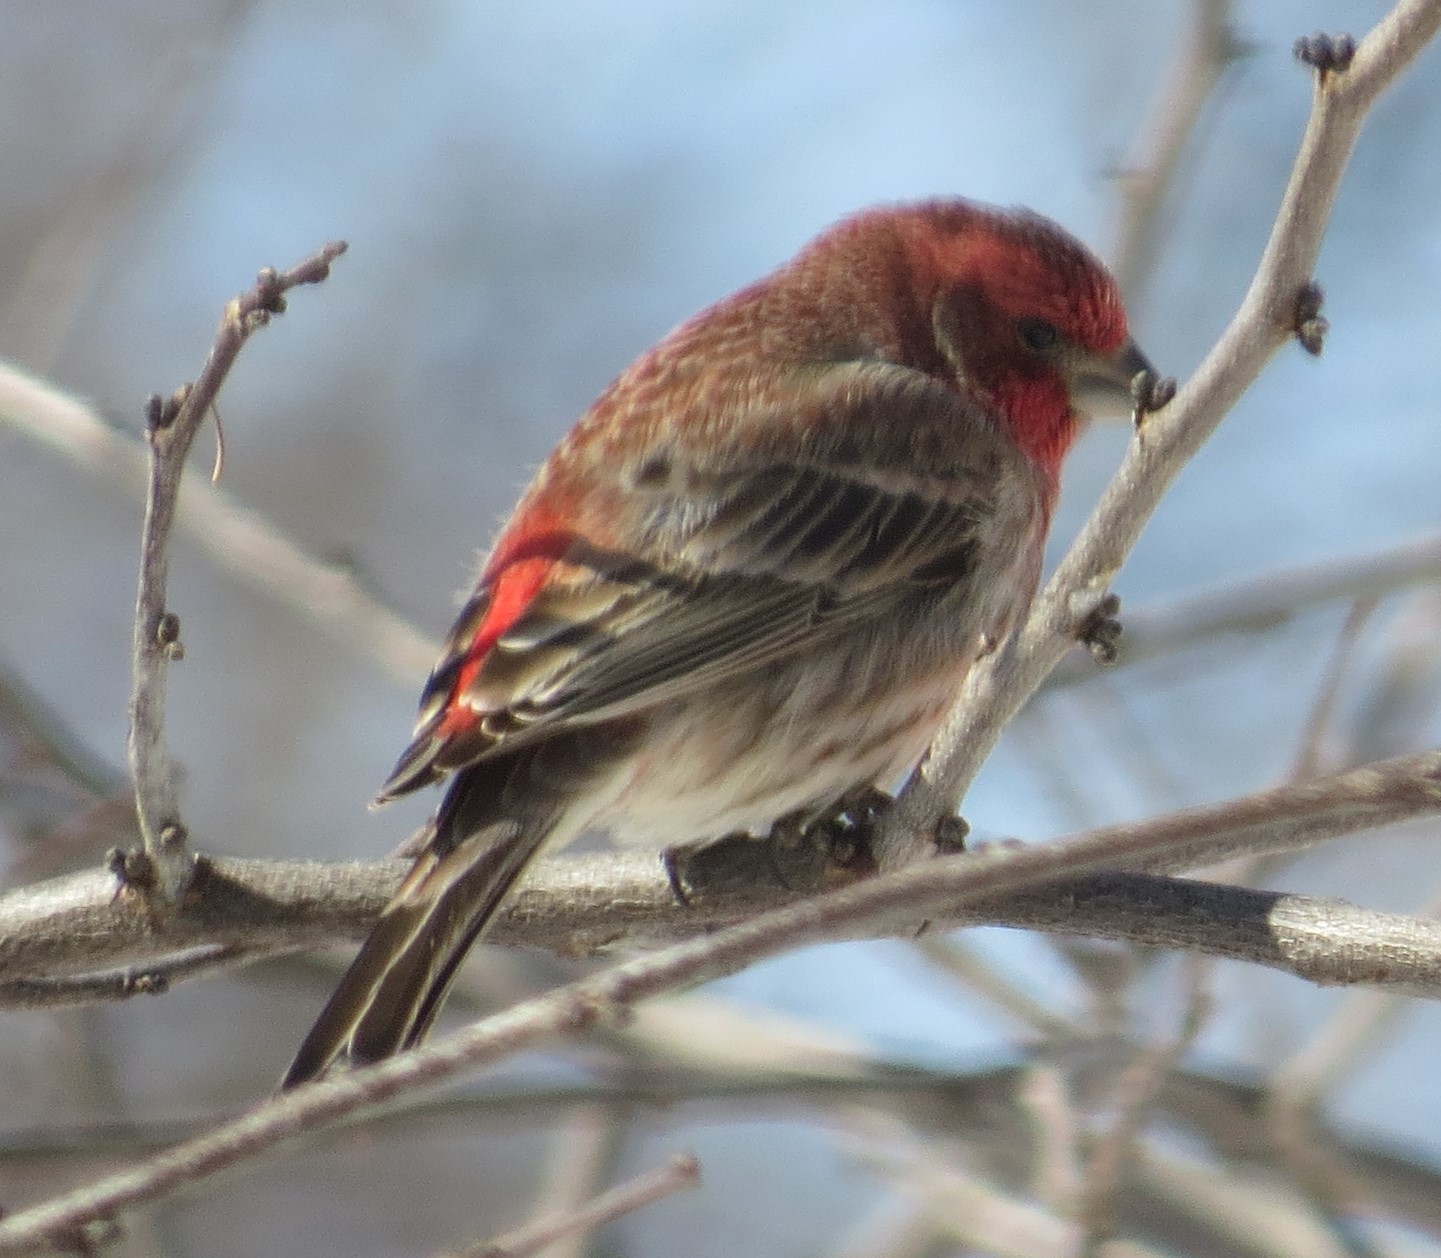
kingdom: Animalia
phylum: Chordata
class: Aves
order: Passeriformes
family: Fringillidae
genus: Haemorhous
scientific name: Haemorhous mexicanus
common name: House finch
